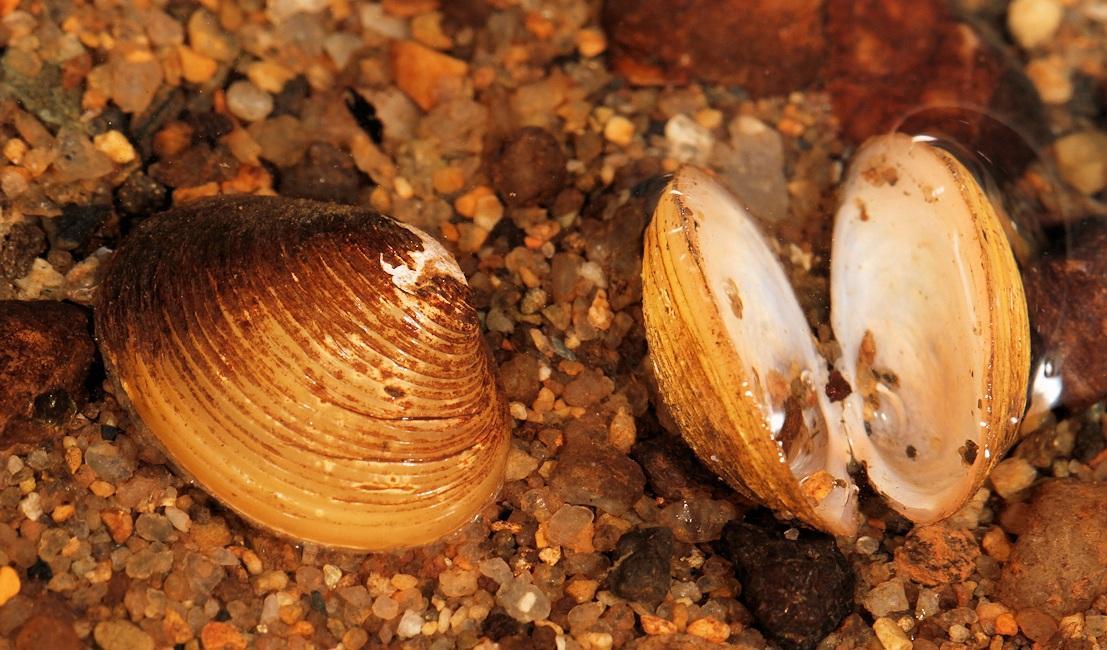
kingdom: Animalia
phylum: Mollusca
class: Bivalvia
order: Venerida
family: Cyrenidae
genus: Corbicula
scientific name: Corbicula africana
